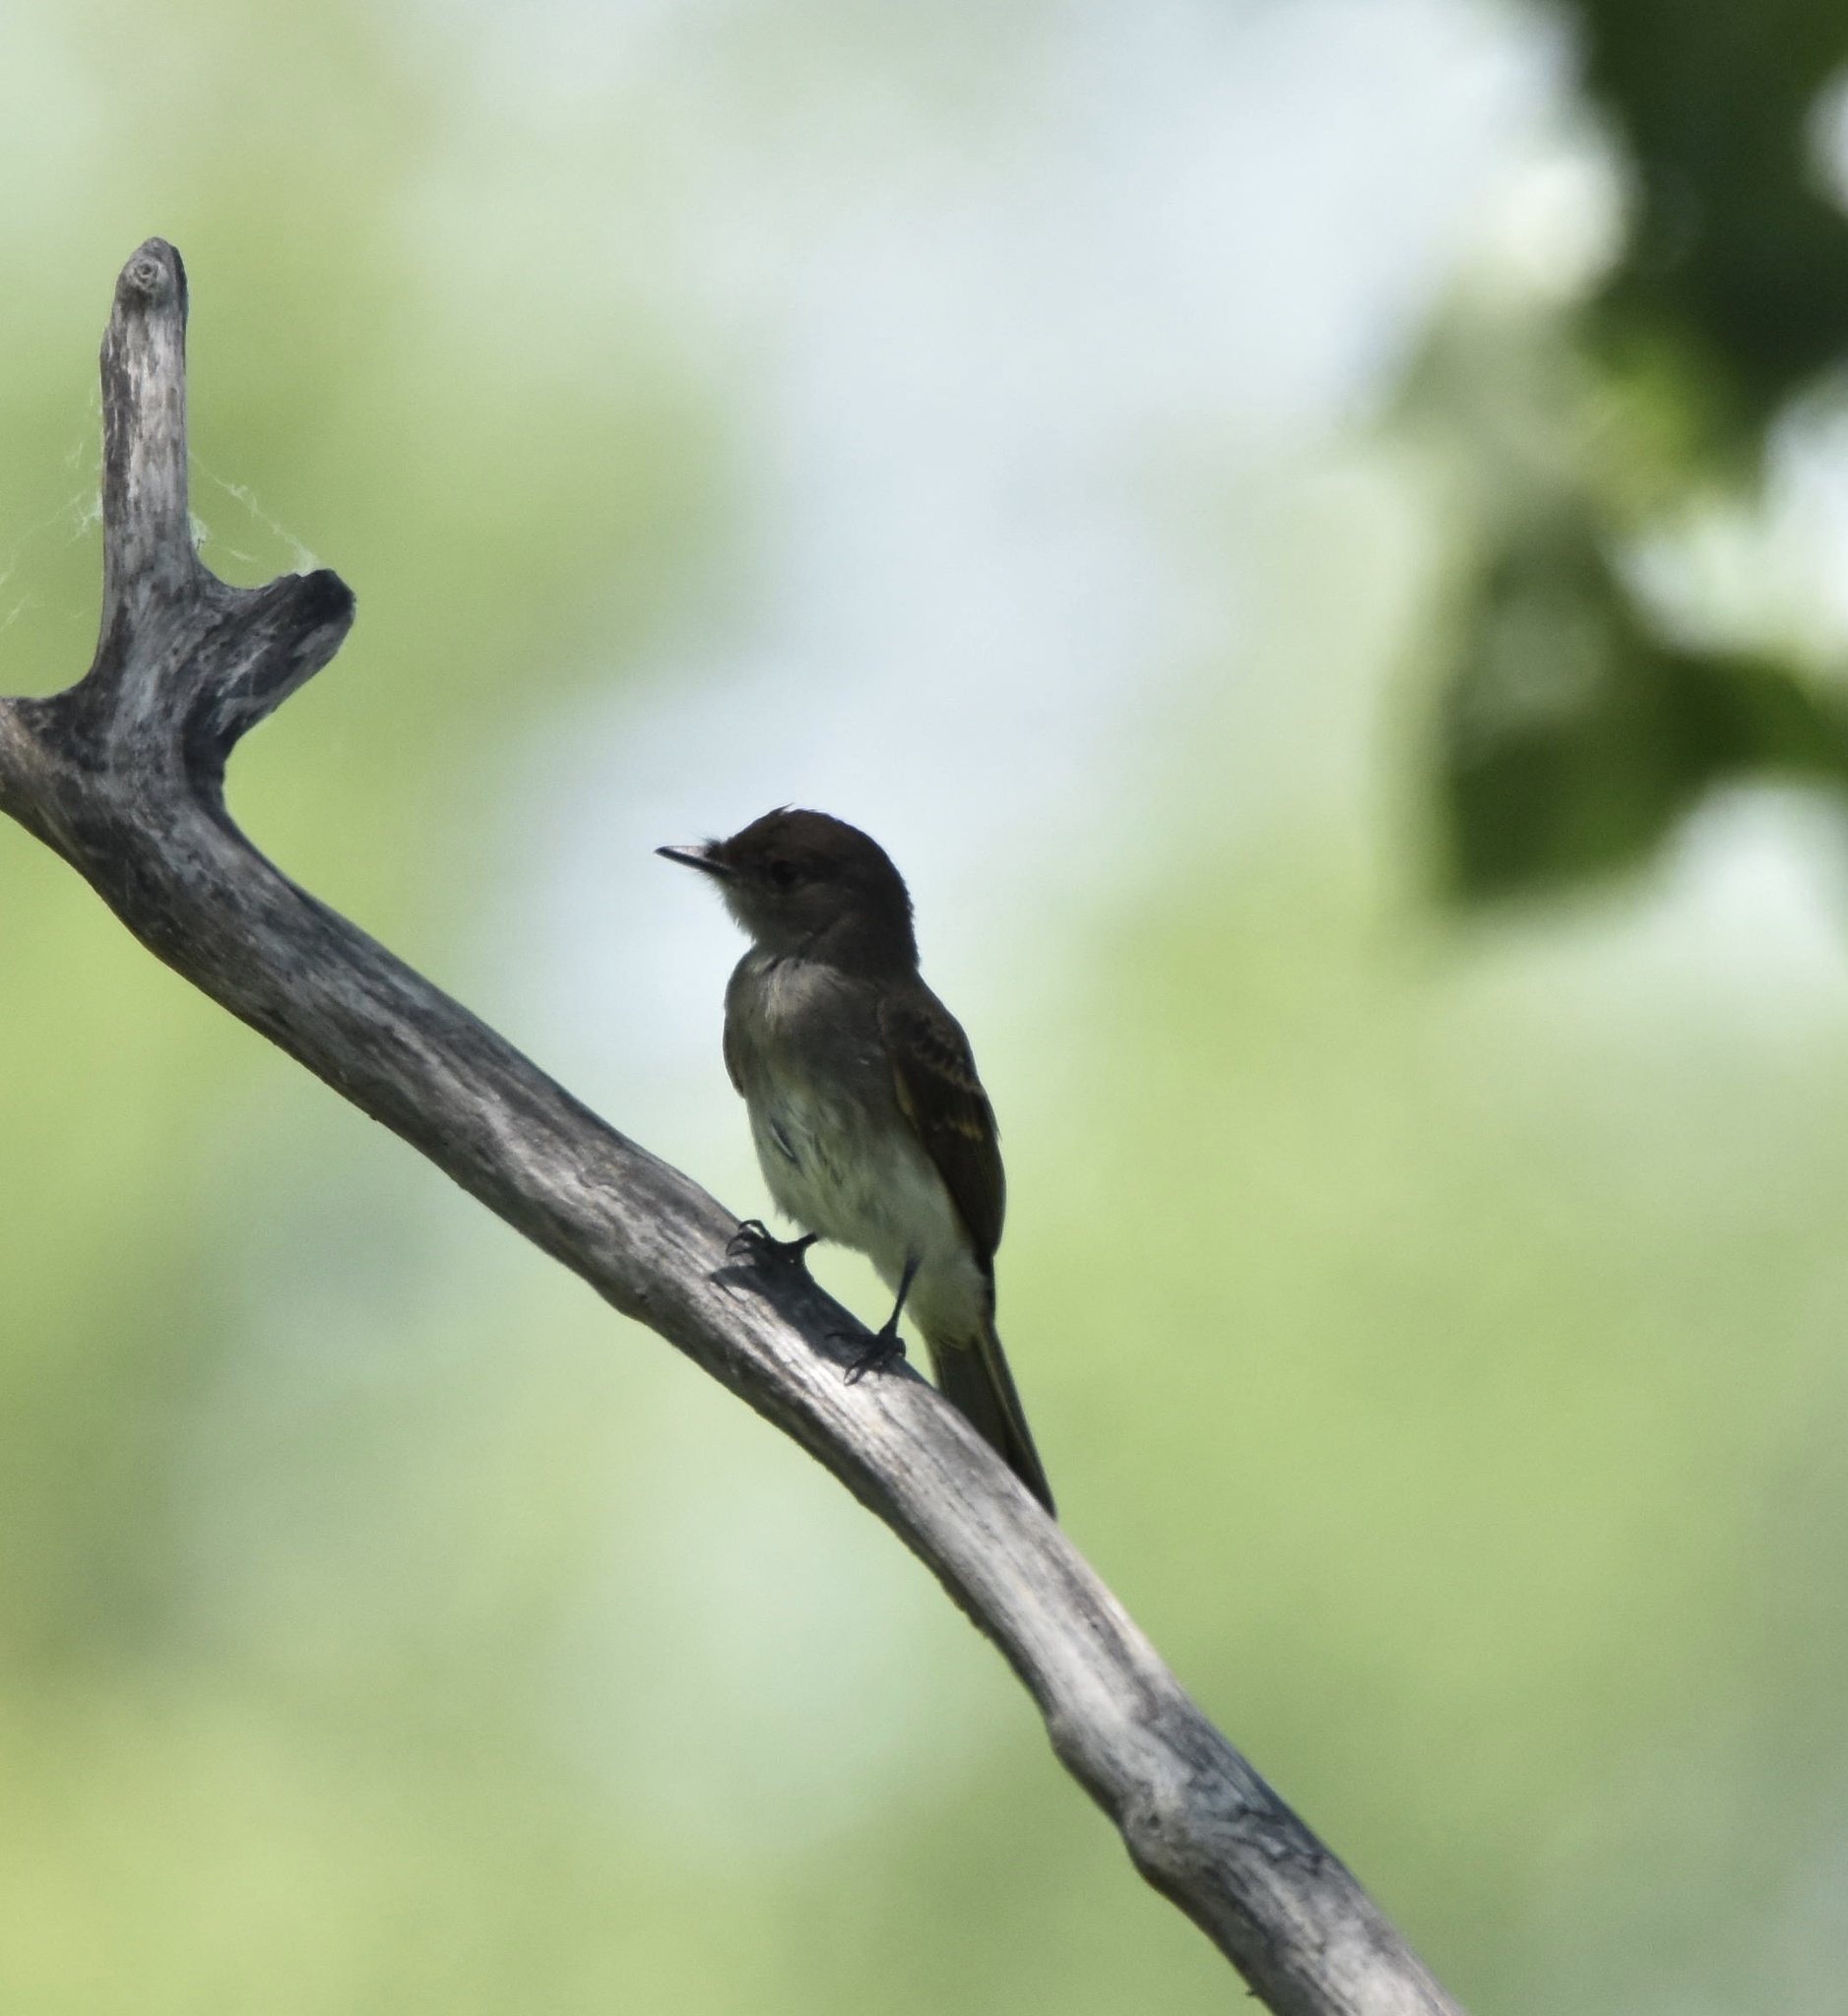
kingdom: Animalia
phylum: Chordata
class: Aves
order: Passeriformes
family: Tyrannidae
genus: Sayornis
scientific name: Sayornis phoebe
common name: Eastern phoebe
